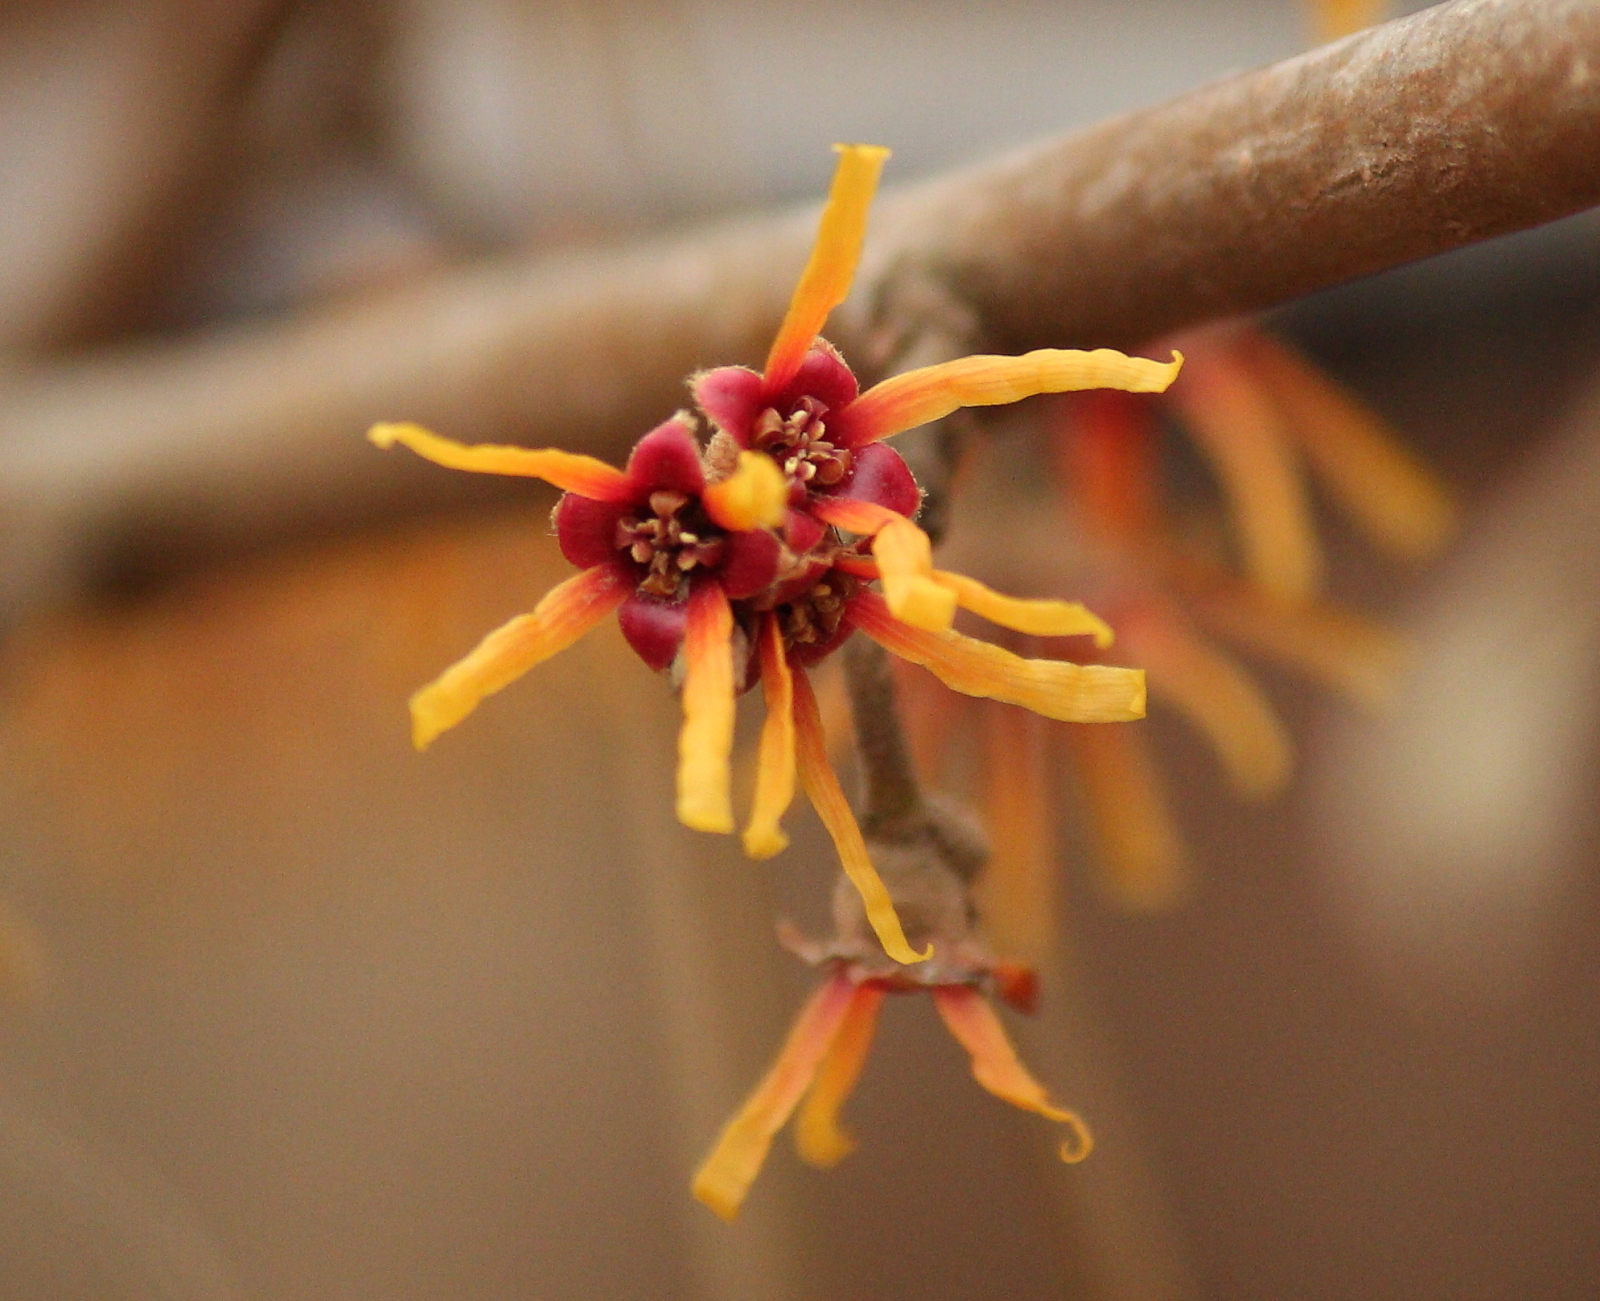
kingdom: Plantae
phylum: Tracheophyta
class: Magnoliopsida
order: Saxifragales
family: Hamamelidaceae
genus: Hamamelis
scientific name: Hamamelis vernalis
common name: Ozark witch-hazel
